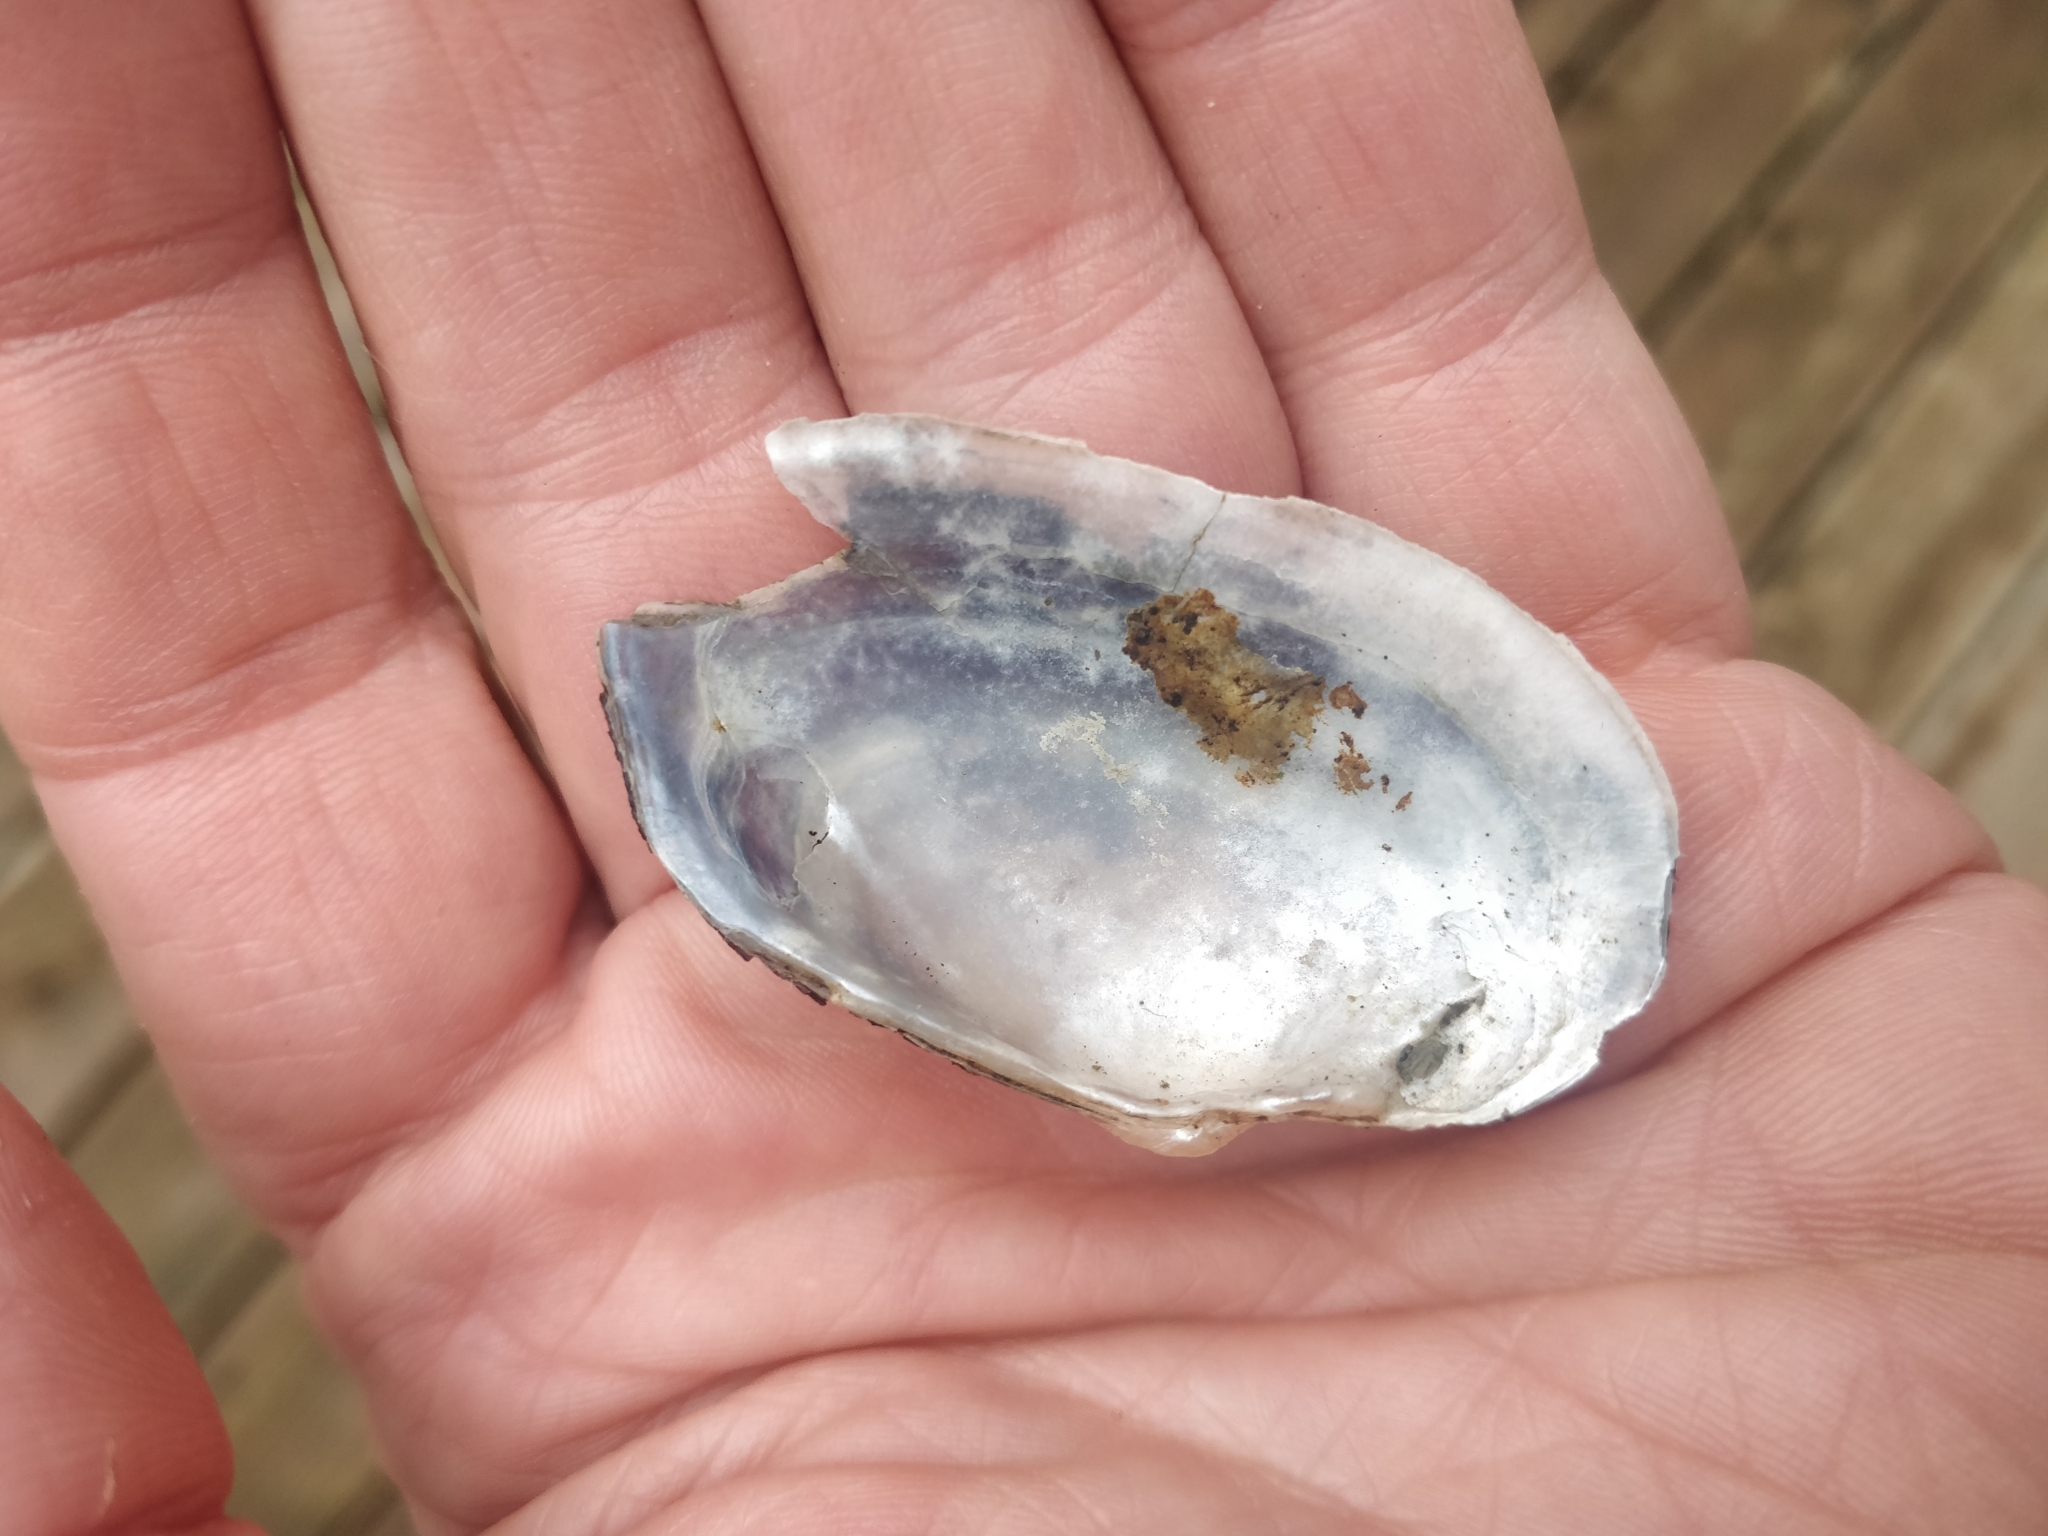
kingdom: Animalia
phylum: Mollusca
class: Bivalvia
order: Unionida
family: Unionidae
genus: Strophitus
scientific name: Strophitus undulatus
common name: Creeper
